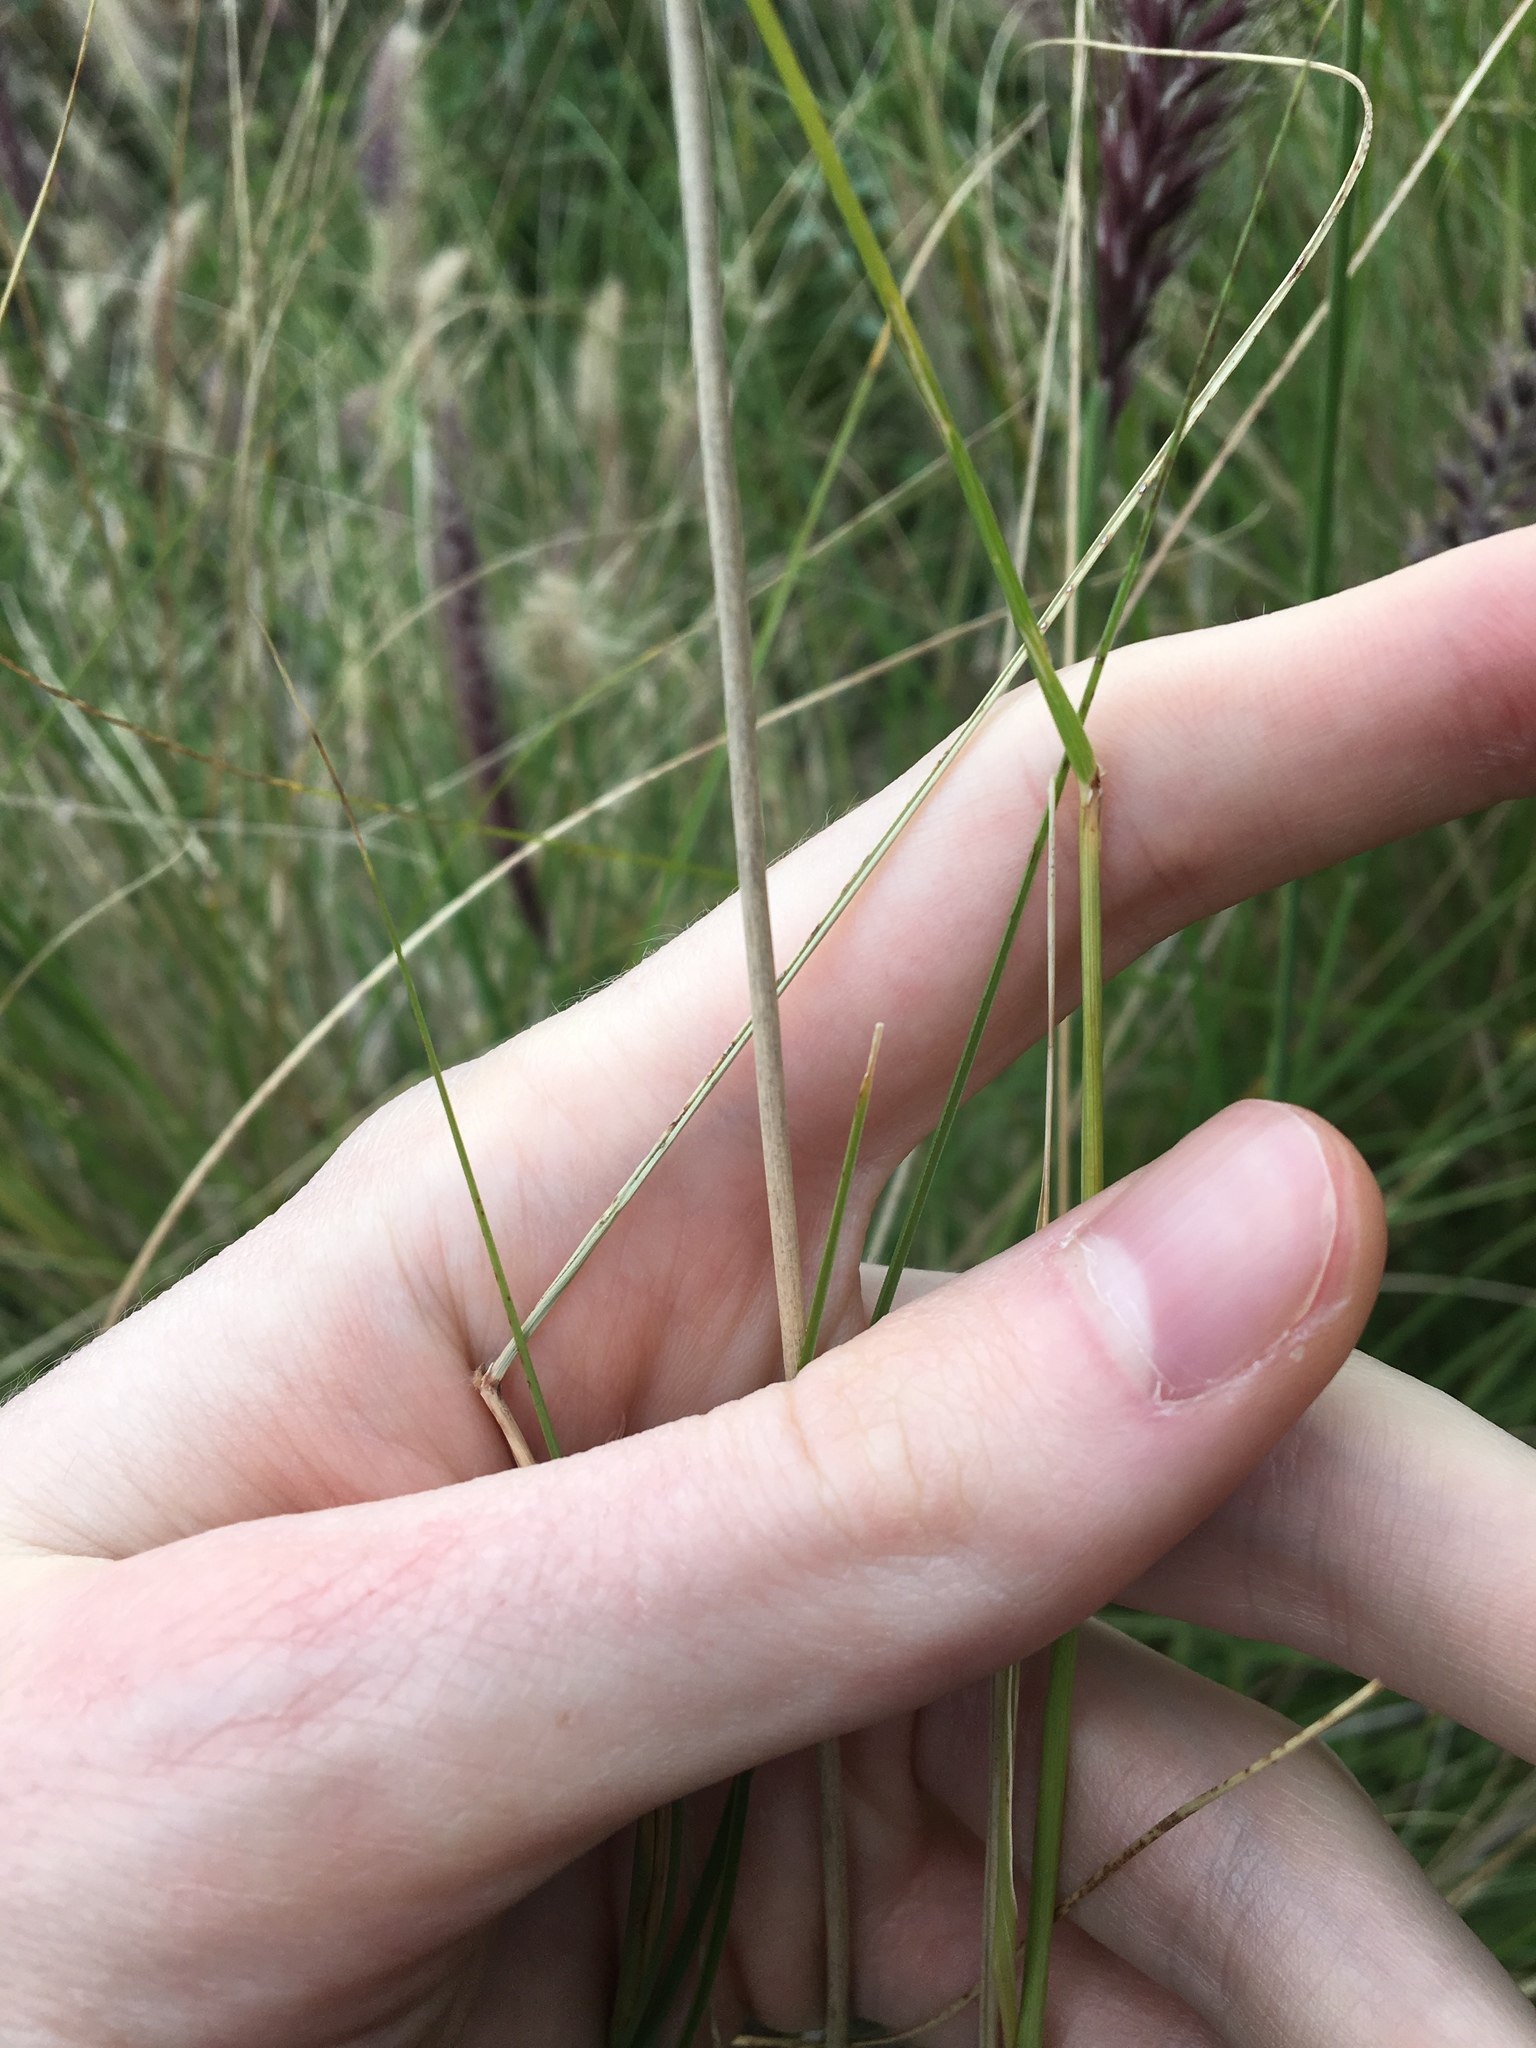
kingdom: Plantae
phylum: Tracheophyta
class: Liliopsida
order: Poales
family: Poaceae
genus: Cenchrus
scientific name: Cenchrus setaceus
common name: Crimson fountaingrass
